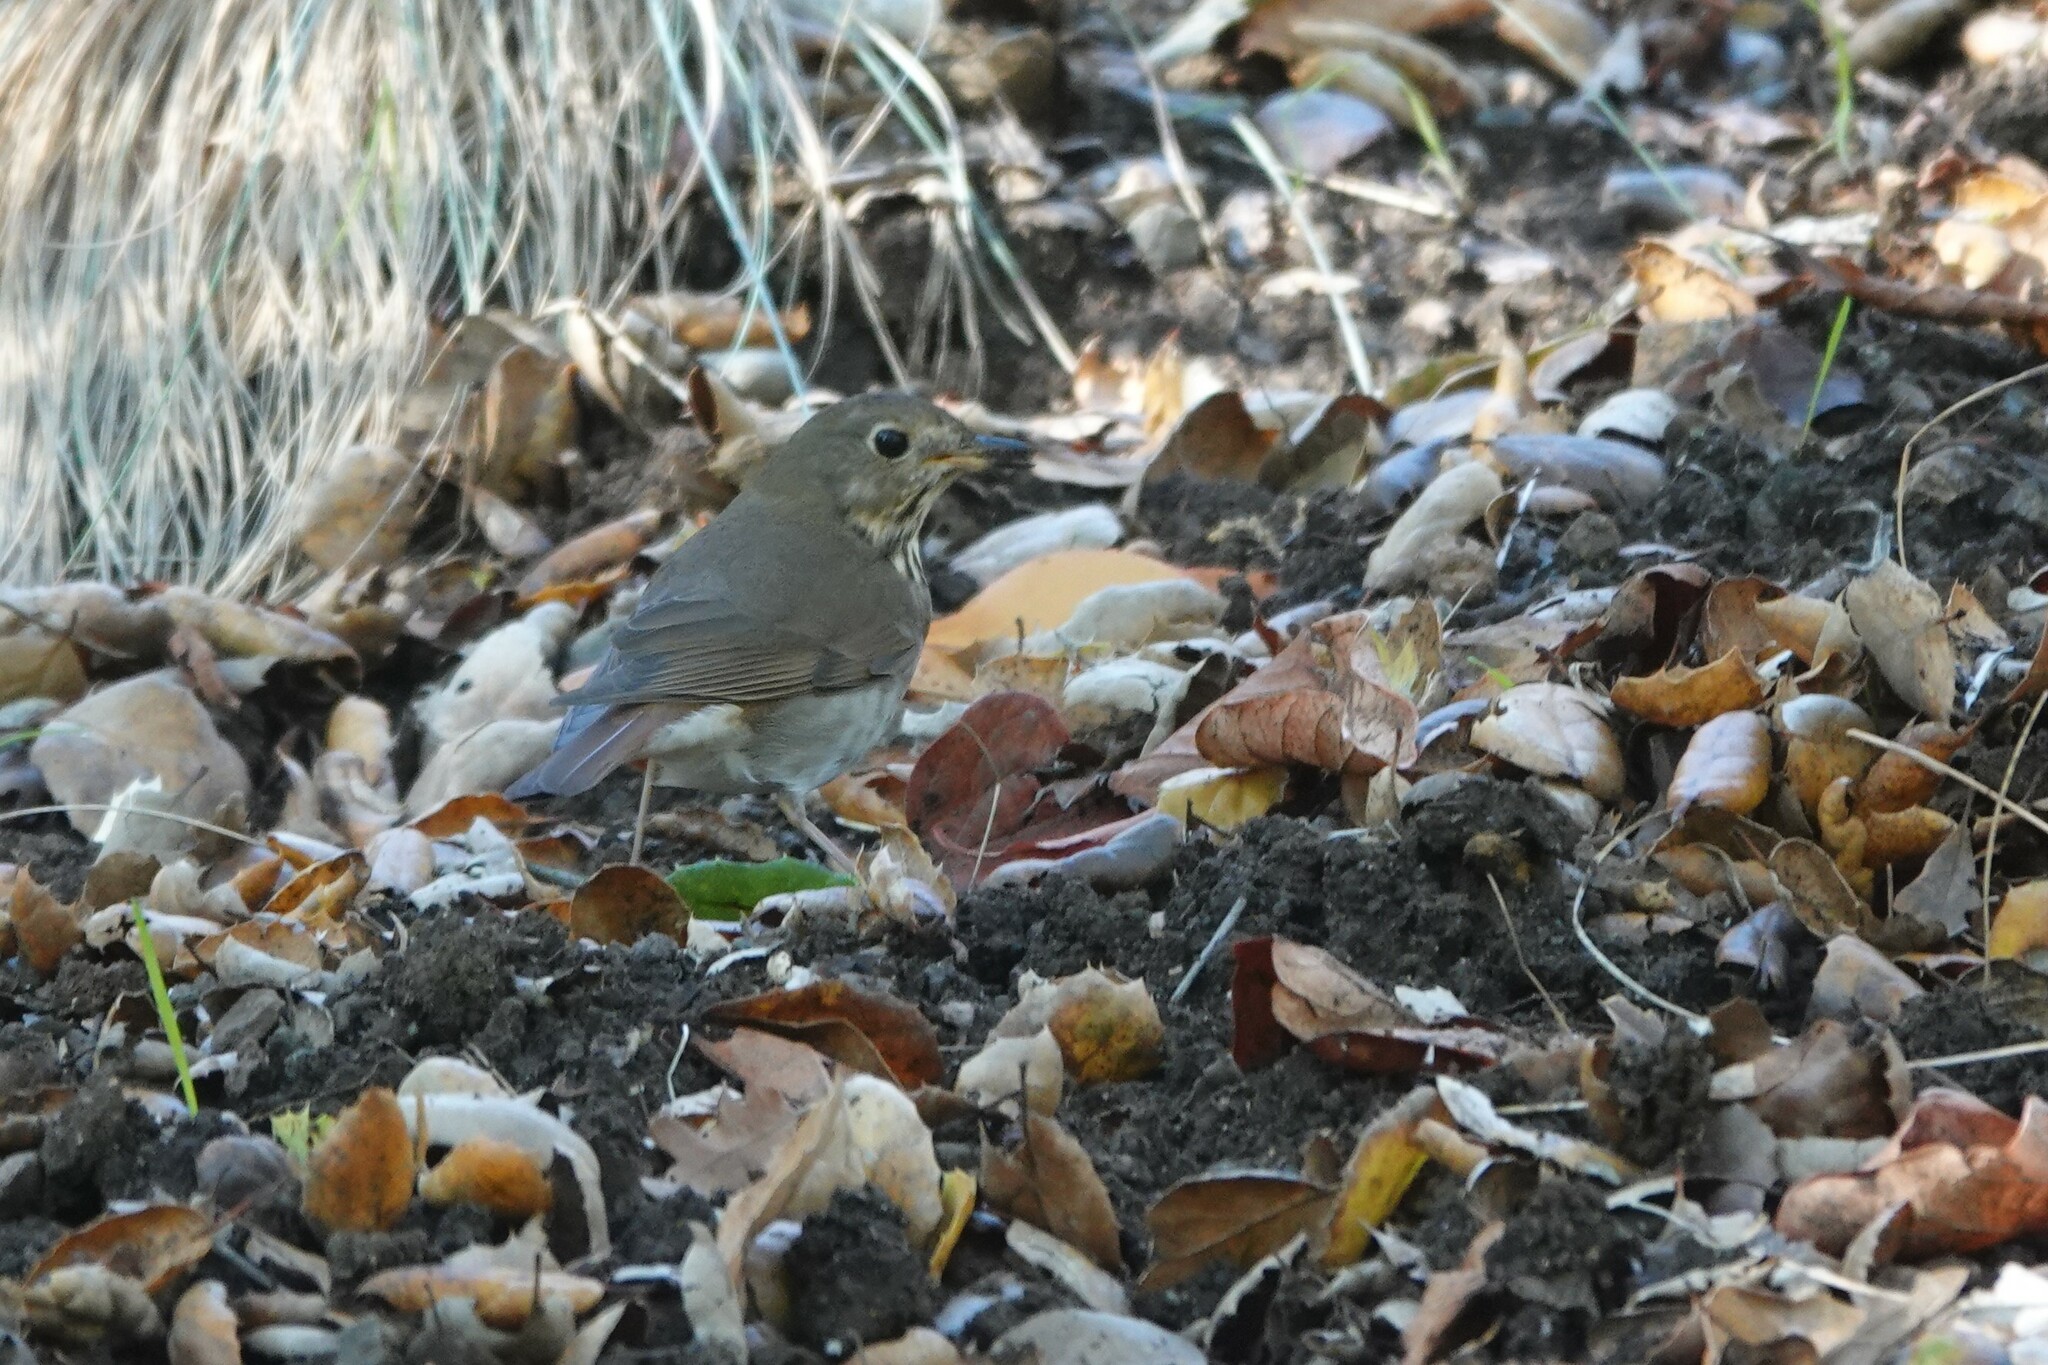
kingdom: Animalia
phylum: Chordata
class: Aves
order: Passeriformes
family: Turdidae
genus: Catharus
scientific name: Catharus guttatus
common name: Hermit thrush
